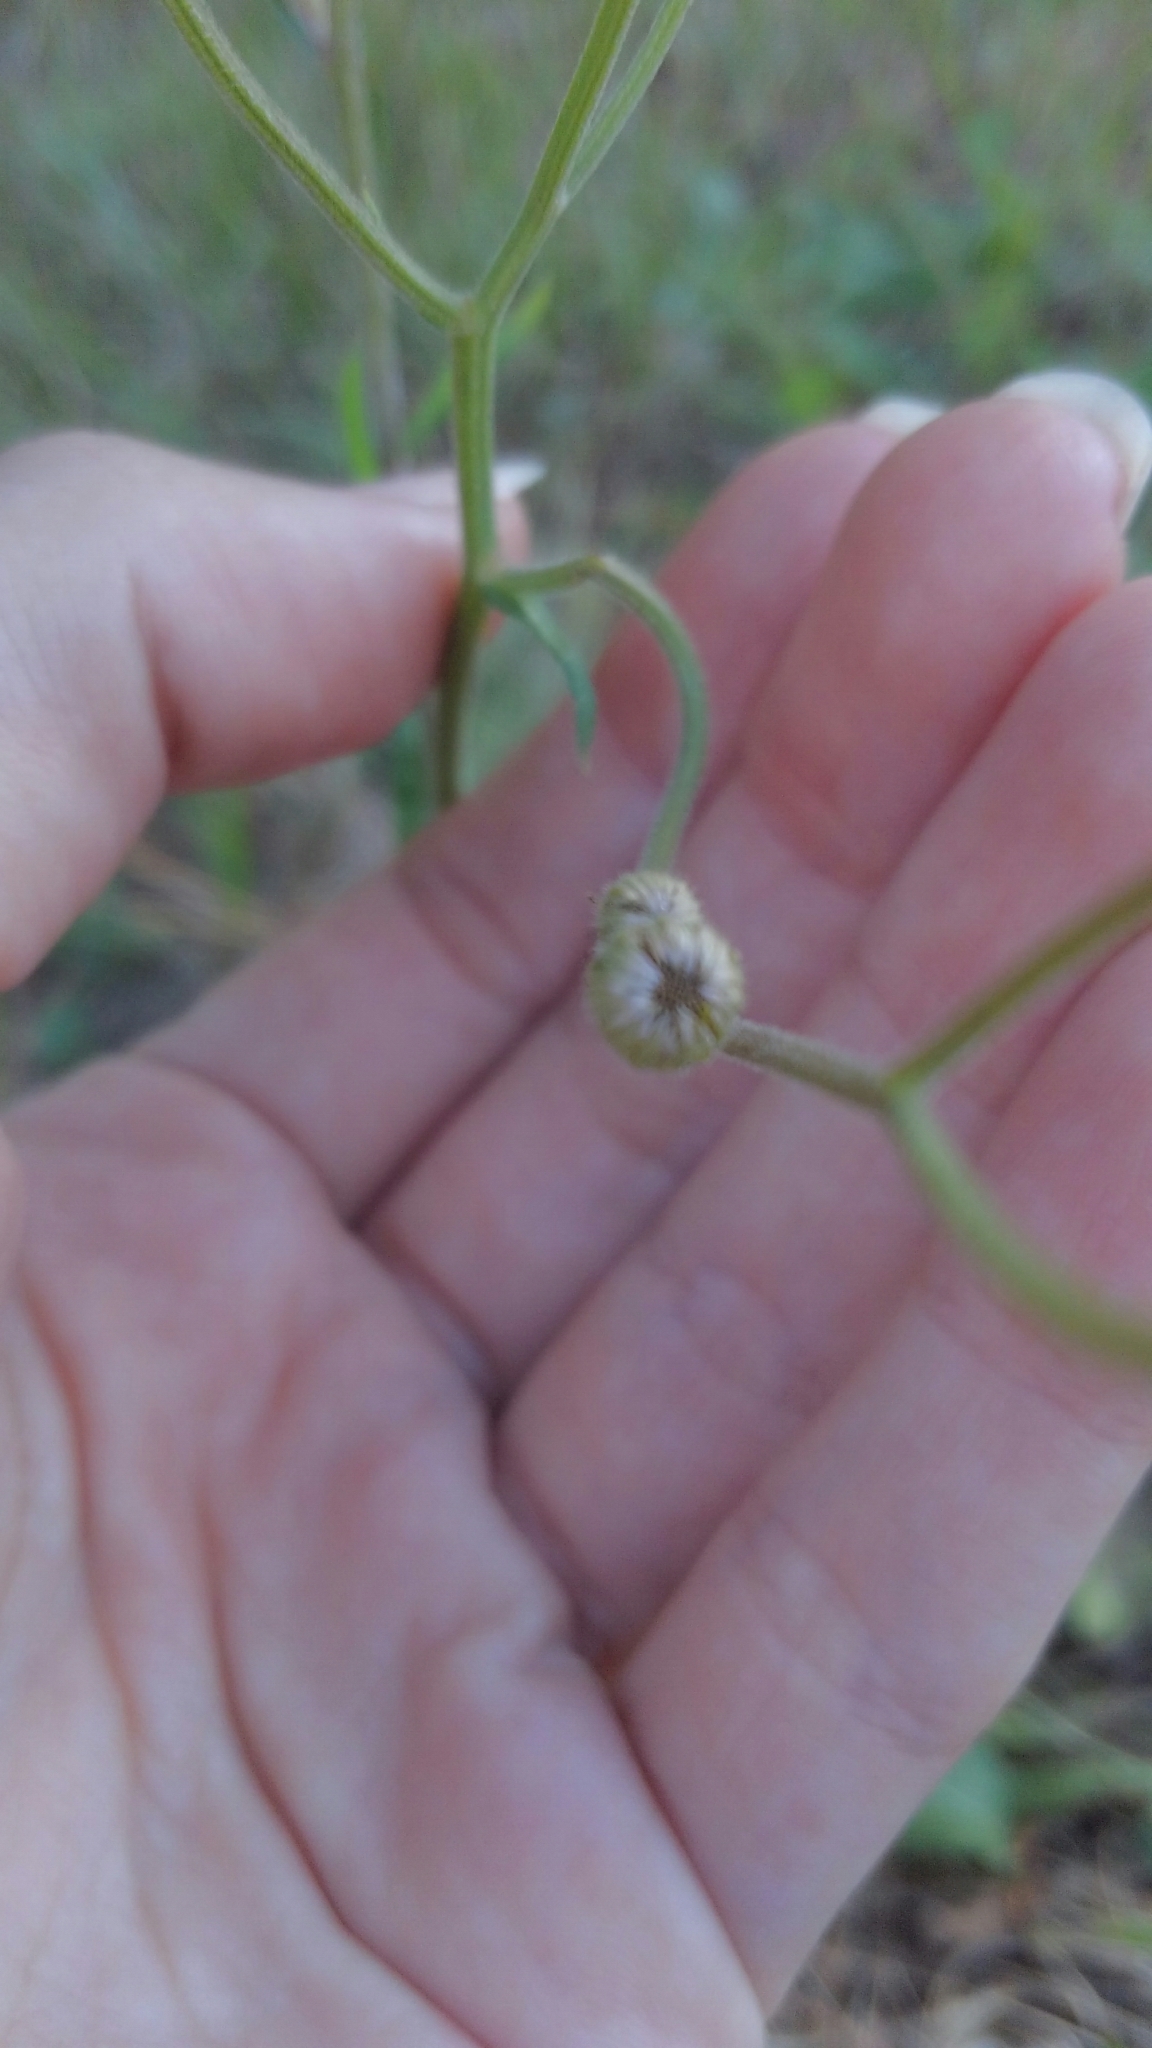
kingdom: Plantae
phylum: Tracheophyta
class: Magnoliopsida
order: Asterales
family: Asteraceae
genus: Erigeron
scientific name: Erigeron quercifolius
